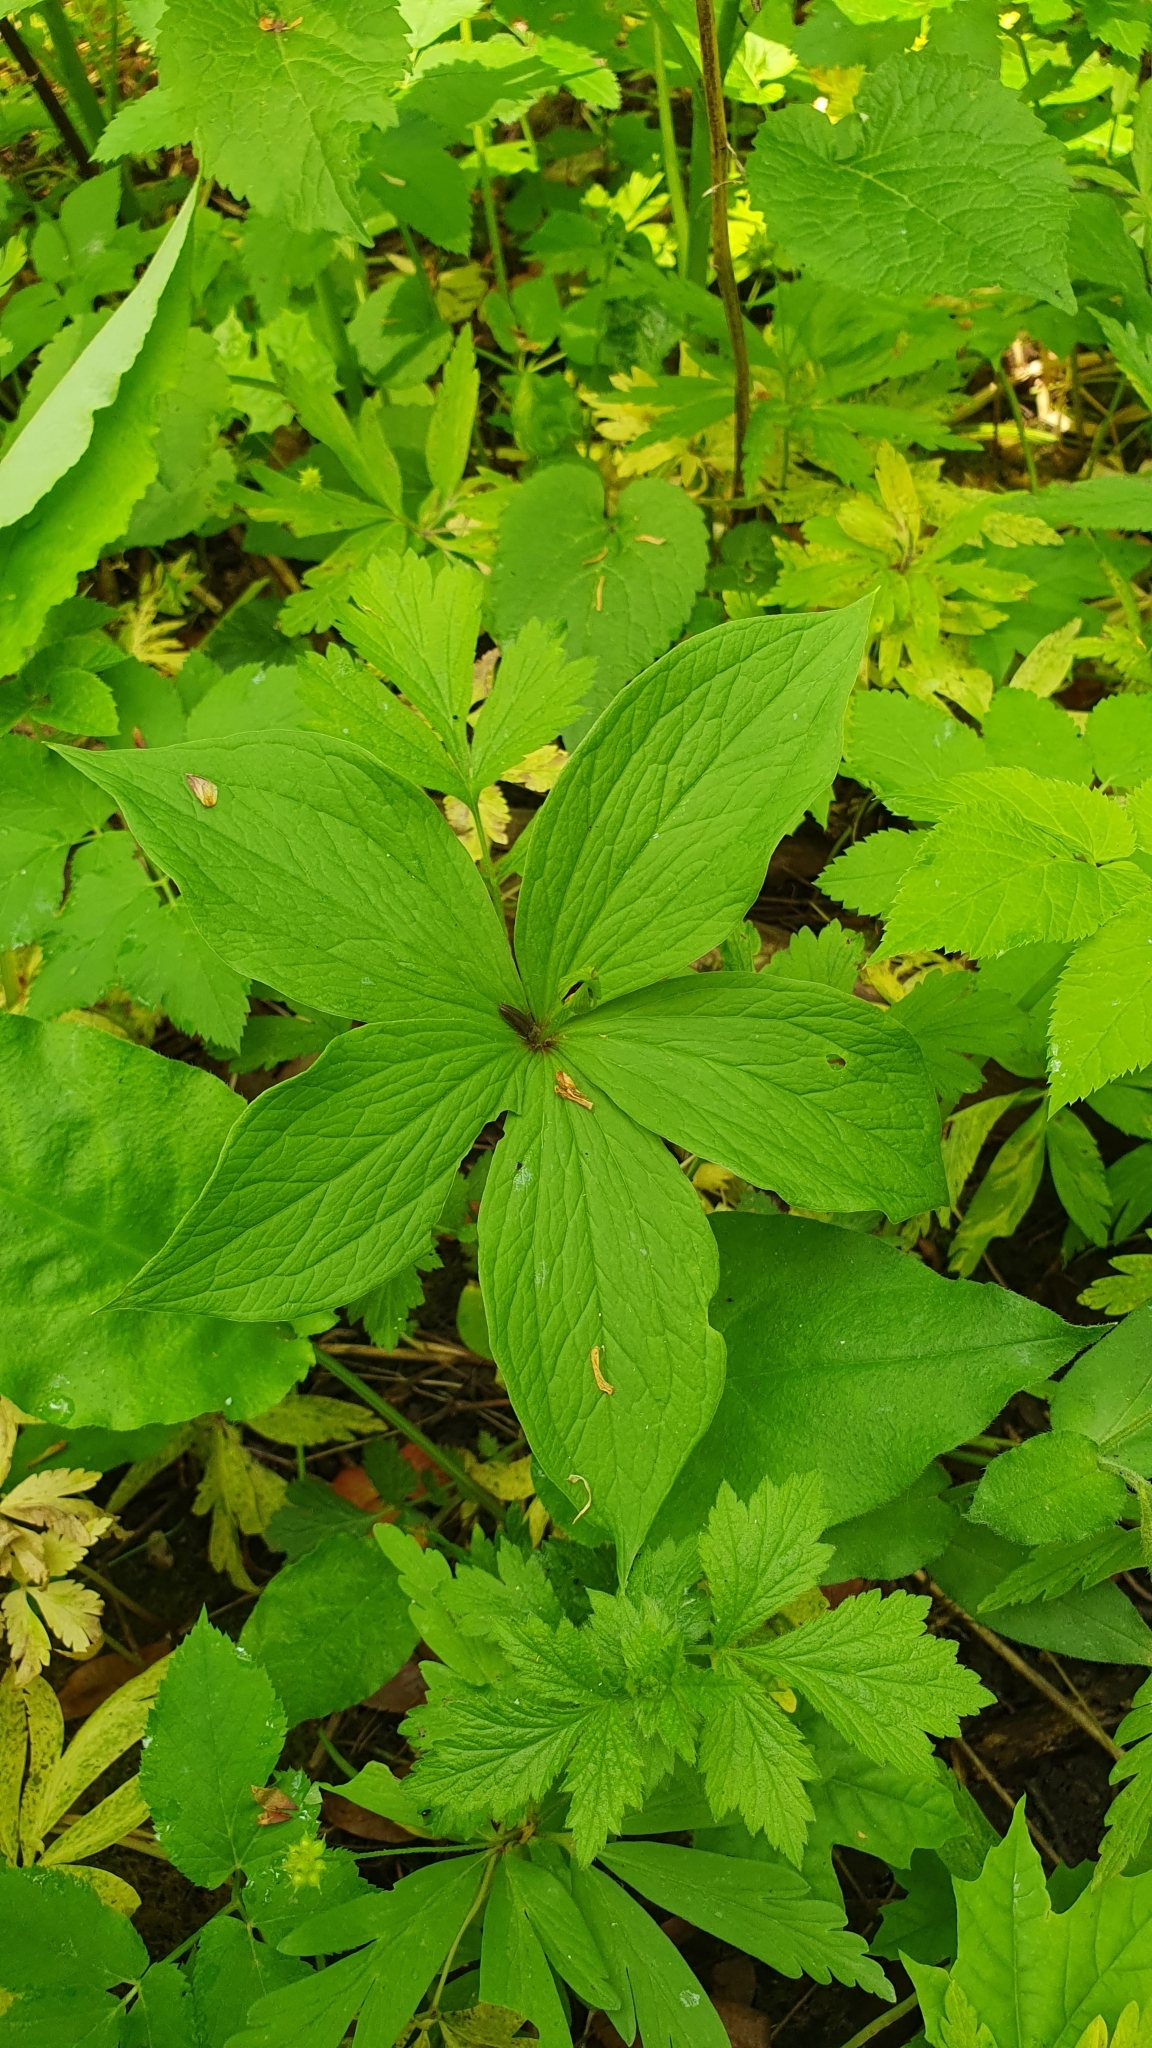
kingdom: Plantae
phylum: Tracheophyta
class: Liliopsida
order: Liliales
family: Melanthiaceae
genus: Paris
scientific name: Paris quadrifolia
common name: Herb-paris
